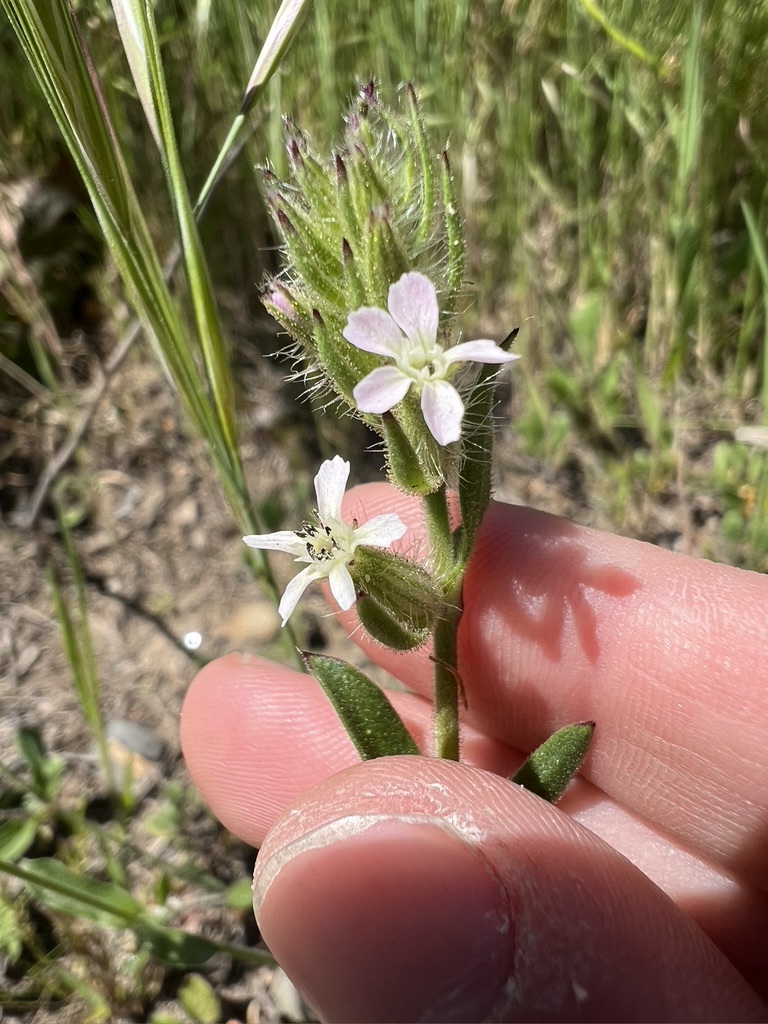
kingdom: Plantae
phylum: Tracheophyta
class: Magnoliopsida
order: Caryophyllales
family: Caryophyllaceae
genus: Silene
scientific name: Silene gallica
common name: Small-flowered catchfly
